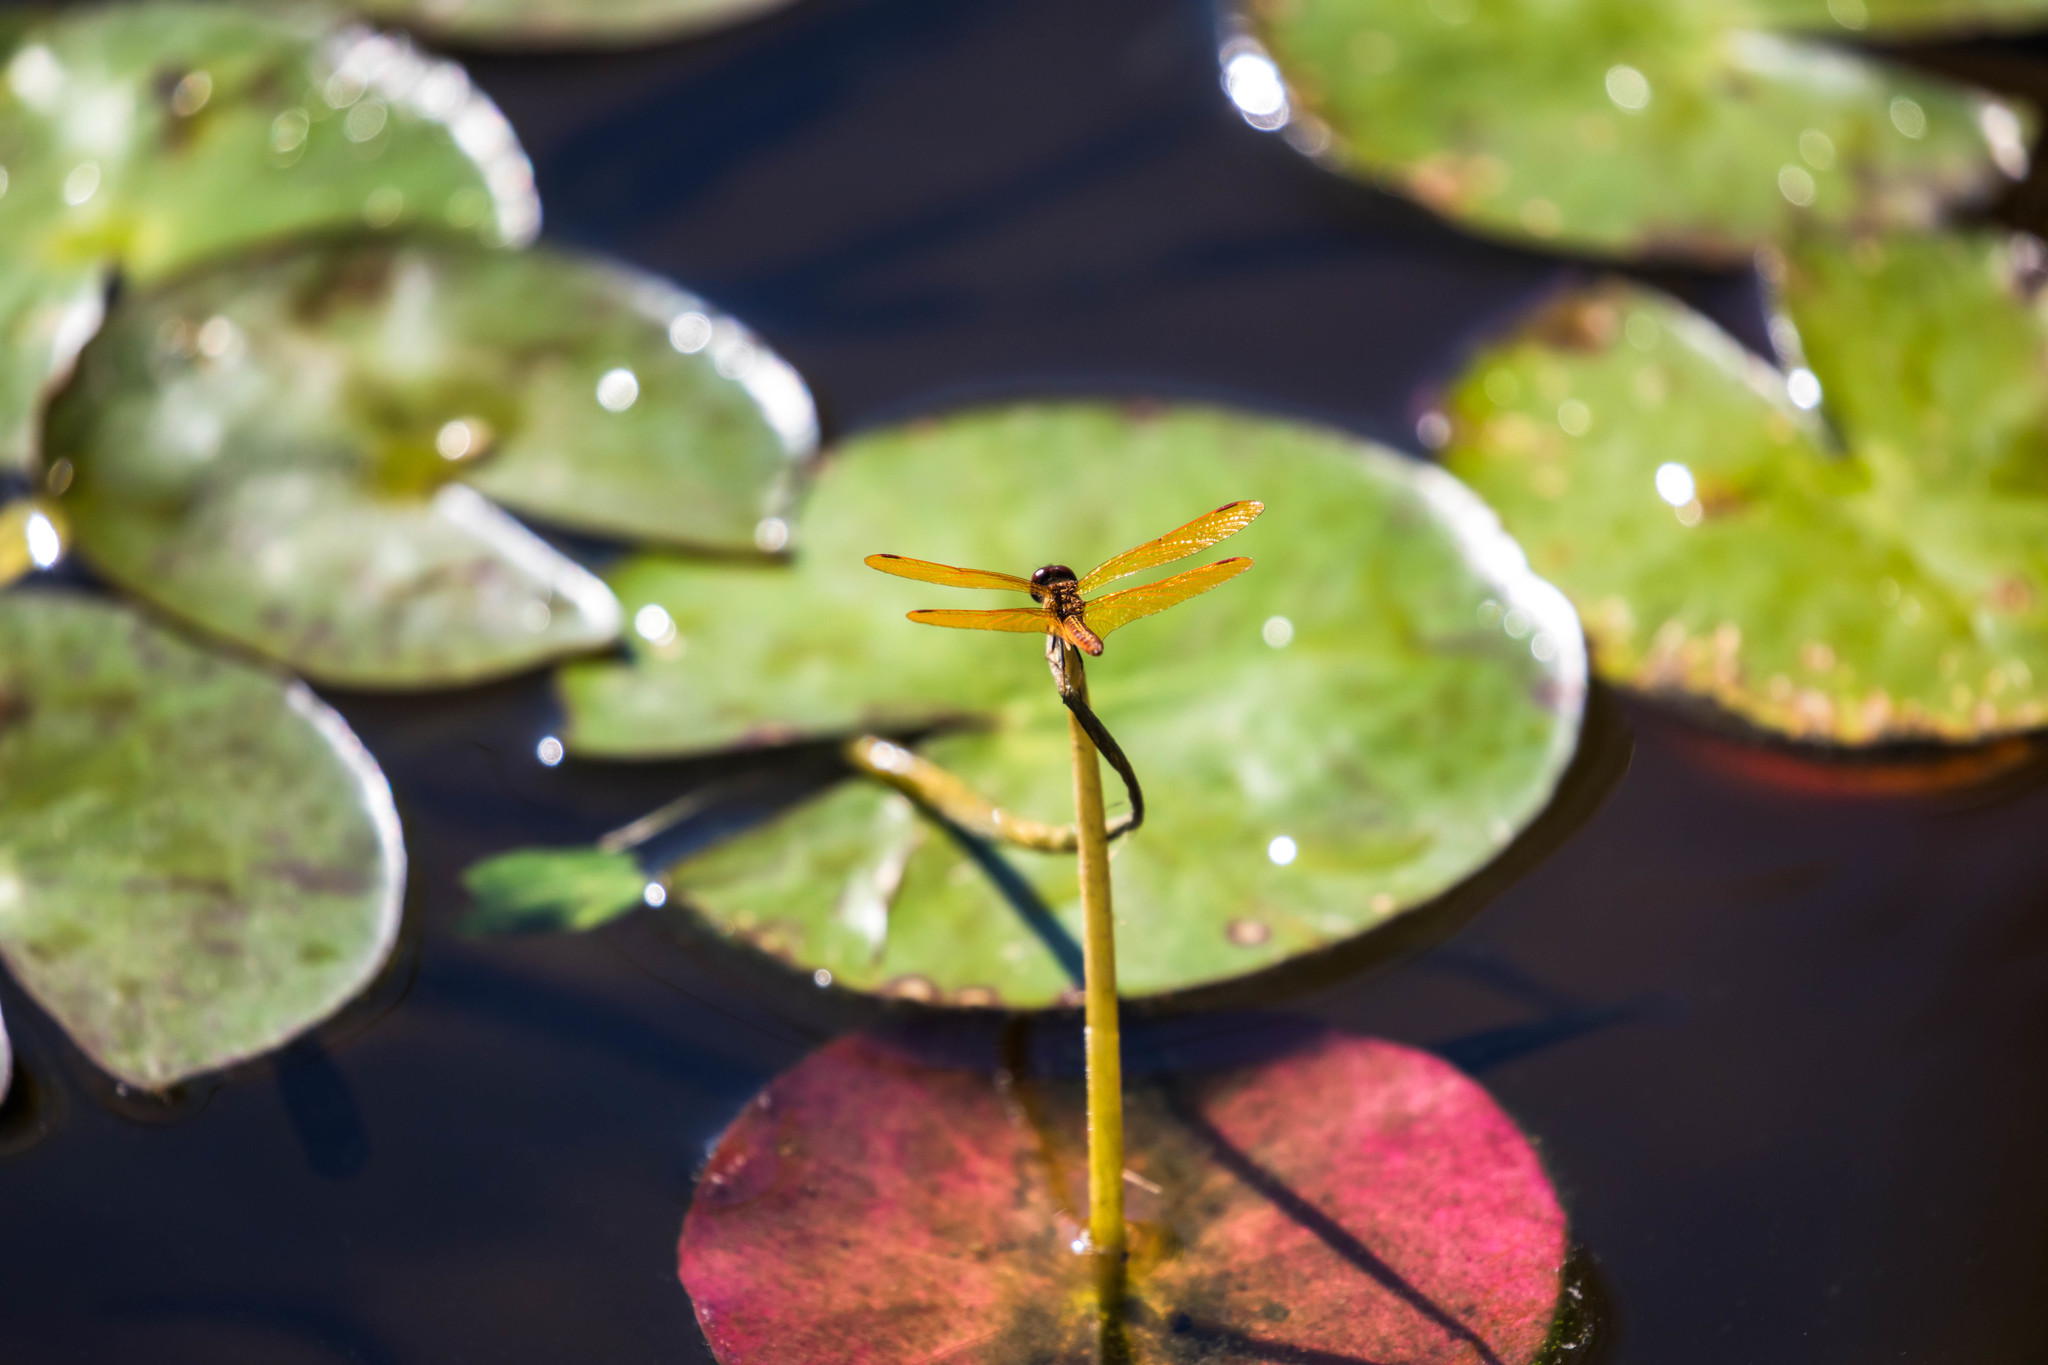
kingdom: Animalia
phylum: Arthropoda
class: Insecta
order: Odonata
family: Libellulidae
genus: Perithemis
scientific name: Perithemis domitia
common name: Slough amberwing
